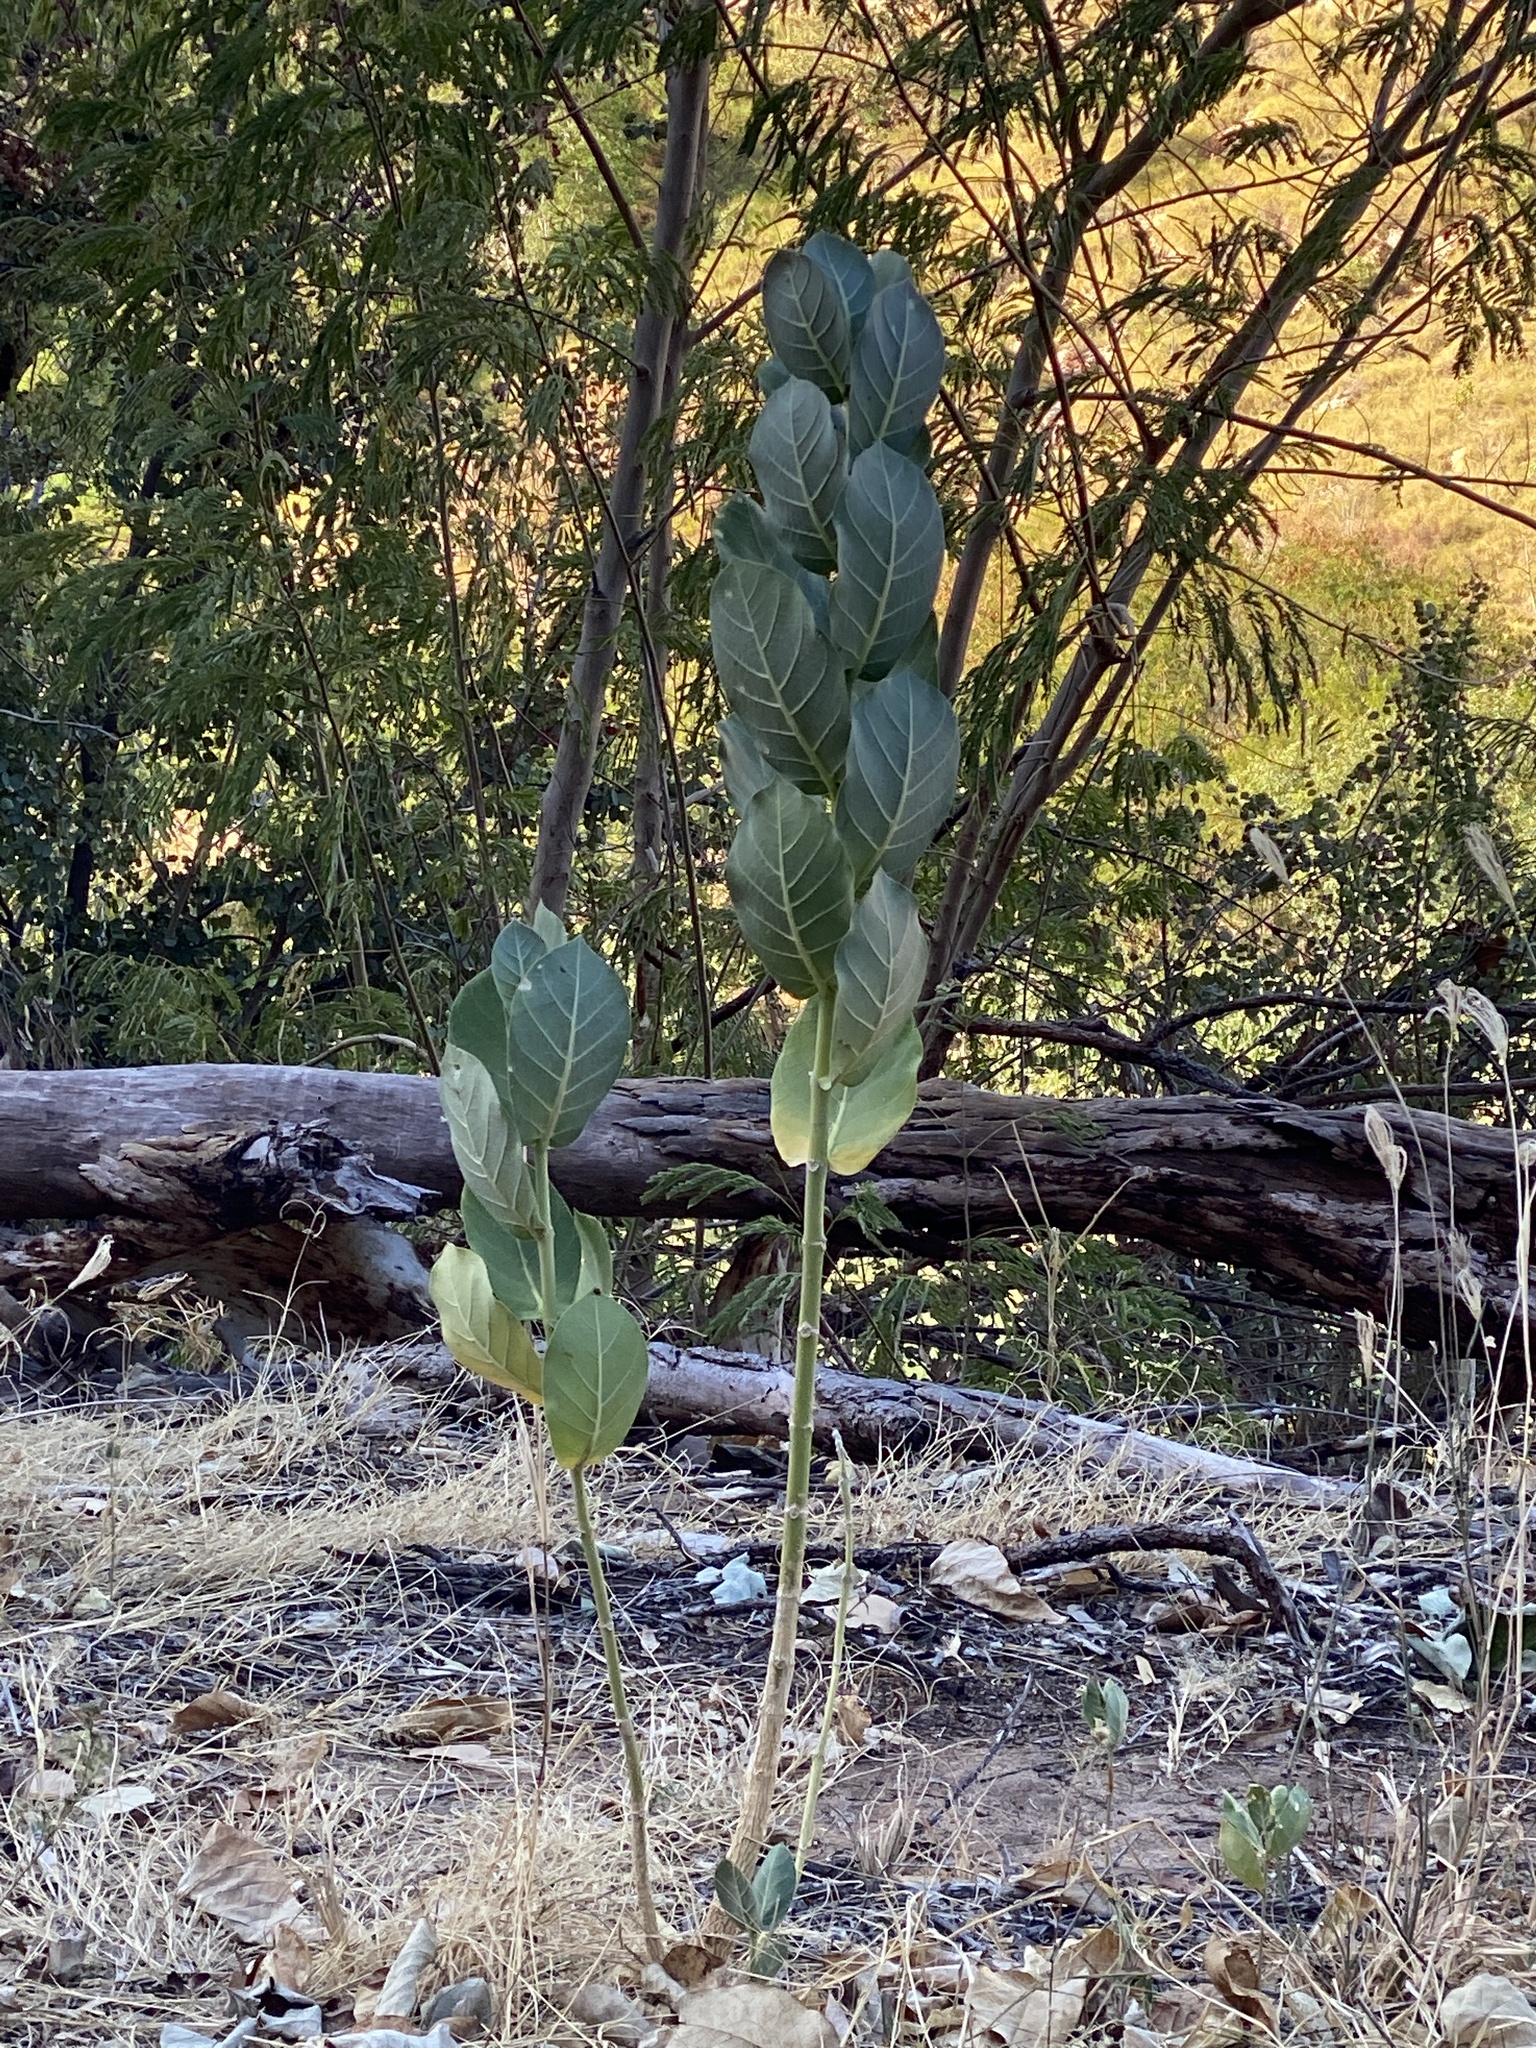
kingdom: Plantae
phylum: Tracheophyta
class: Magnoliopsida
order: Gentianales
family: Apocynaceae
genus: Calotropis
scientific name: Calotropis procera
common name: Roostertree
